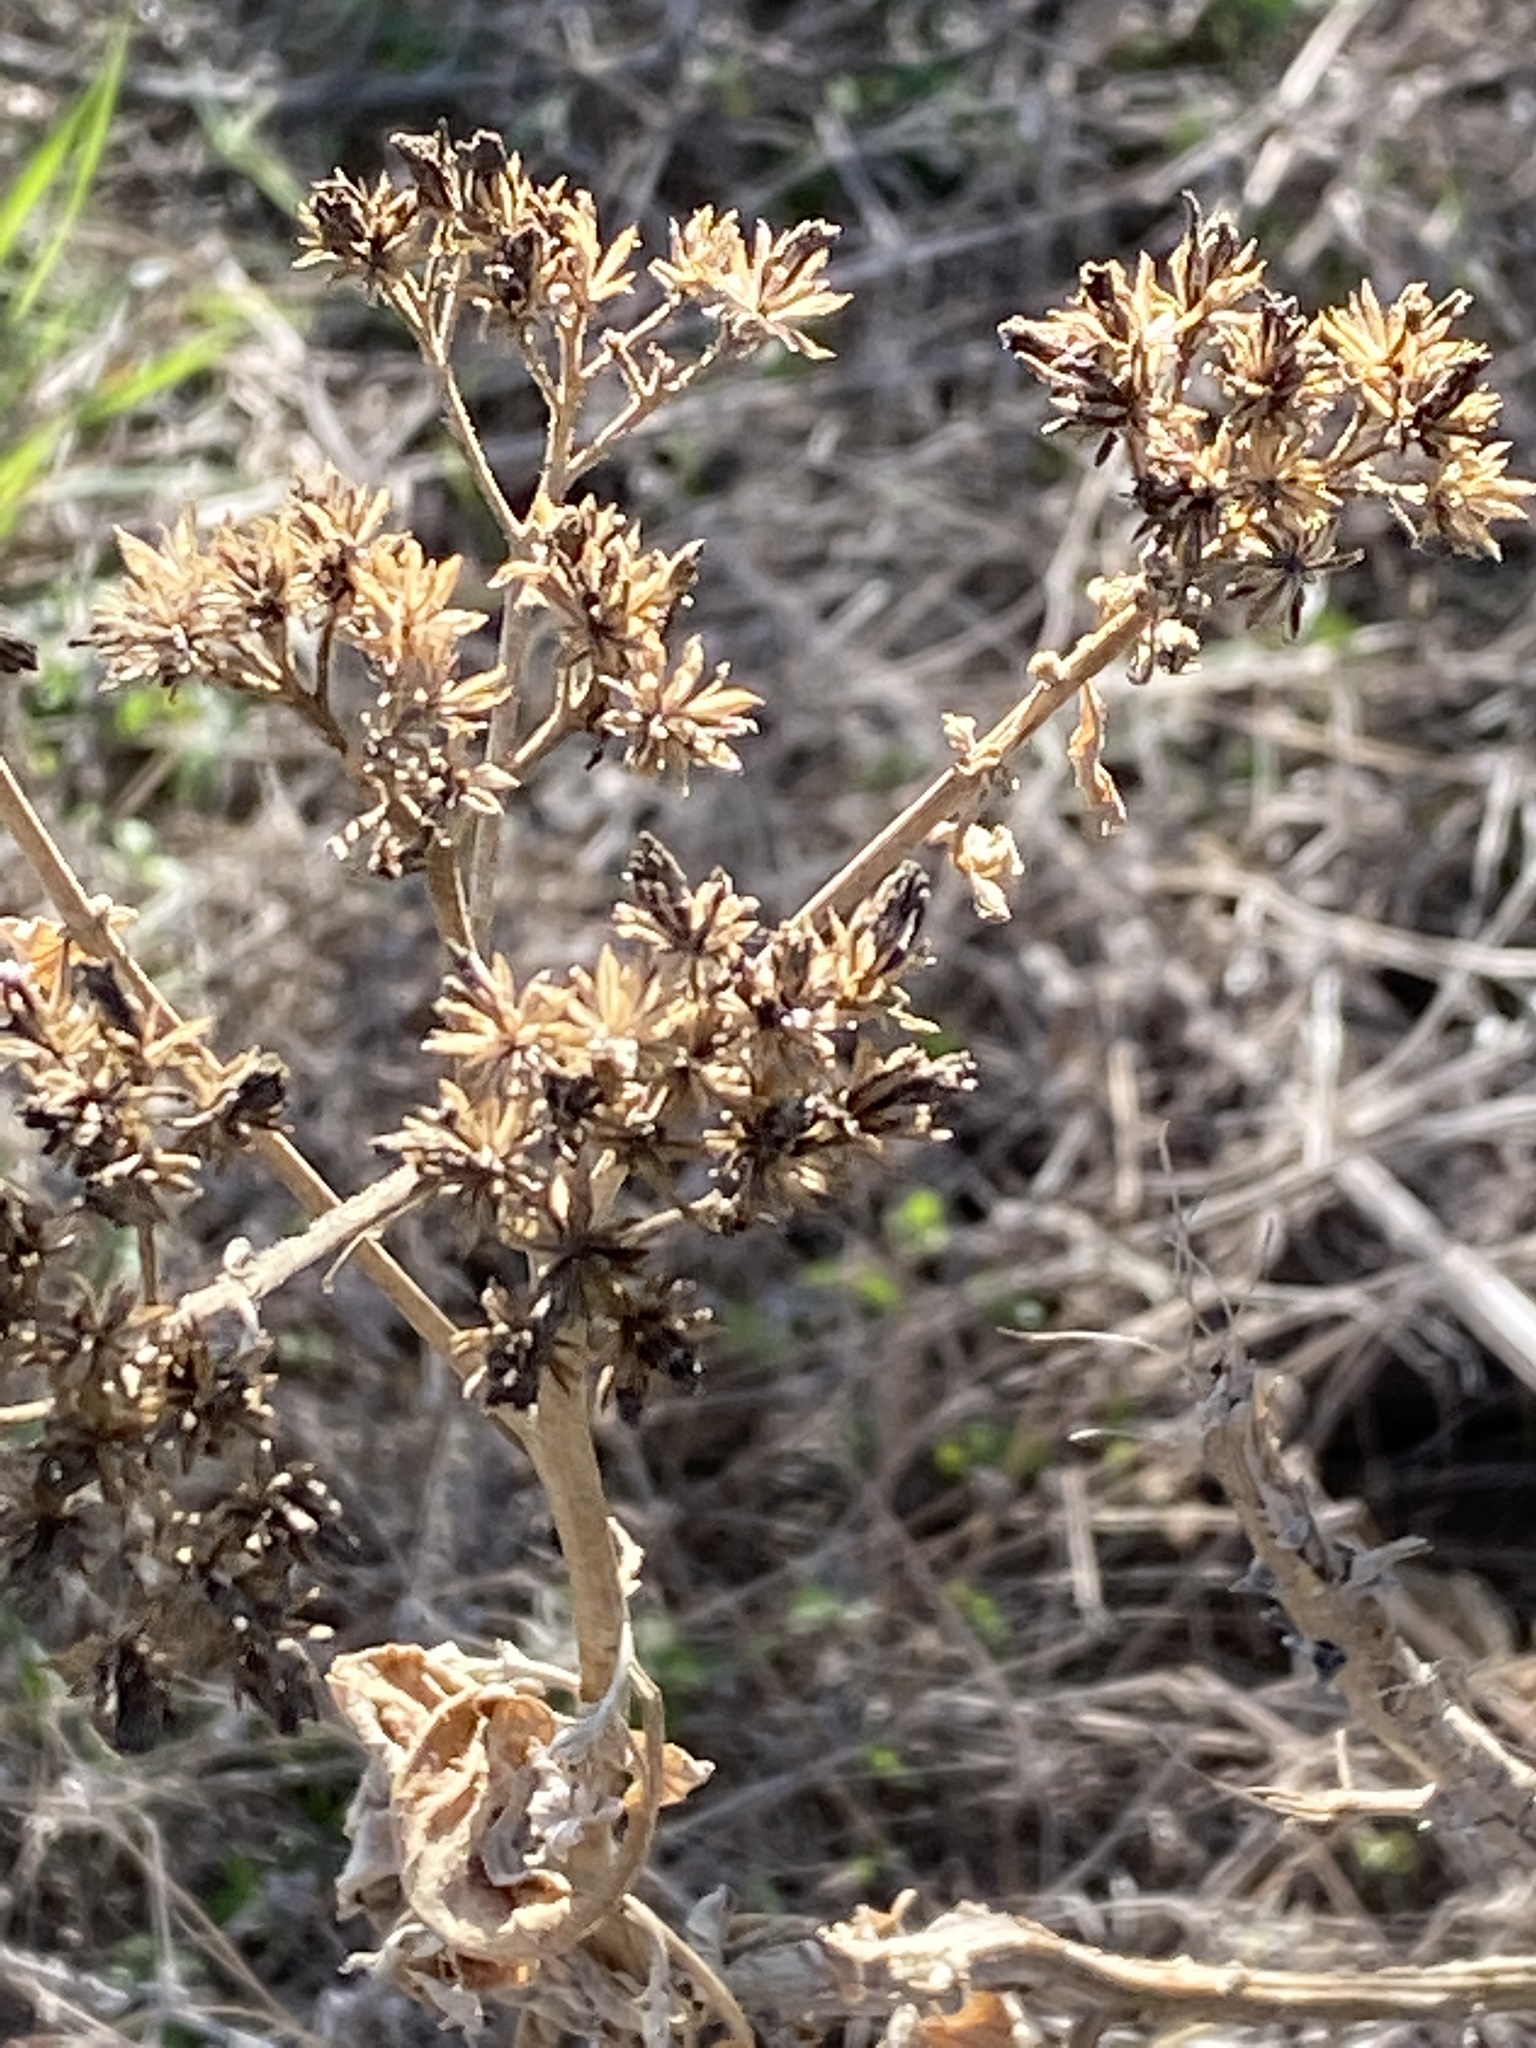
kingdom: Plantae
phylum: Tracheophyta
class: Magnoliopsida
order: Asterales
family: Asteraceae
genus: Verbesina
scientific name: Verbesina virginica
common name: Frostweed
